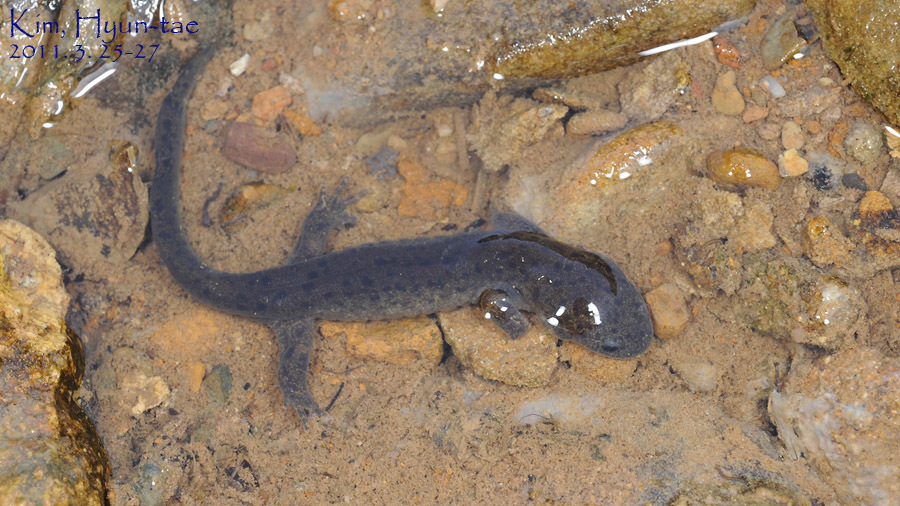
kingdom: Animalia
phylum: Chordata
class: Amphibia
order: Caudata
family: Hynobiidae
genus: Hynobius
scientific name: Hynobius leechii
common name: Gensan salamander
